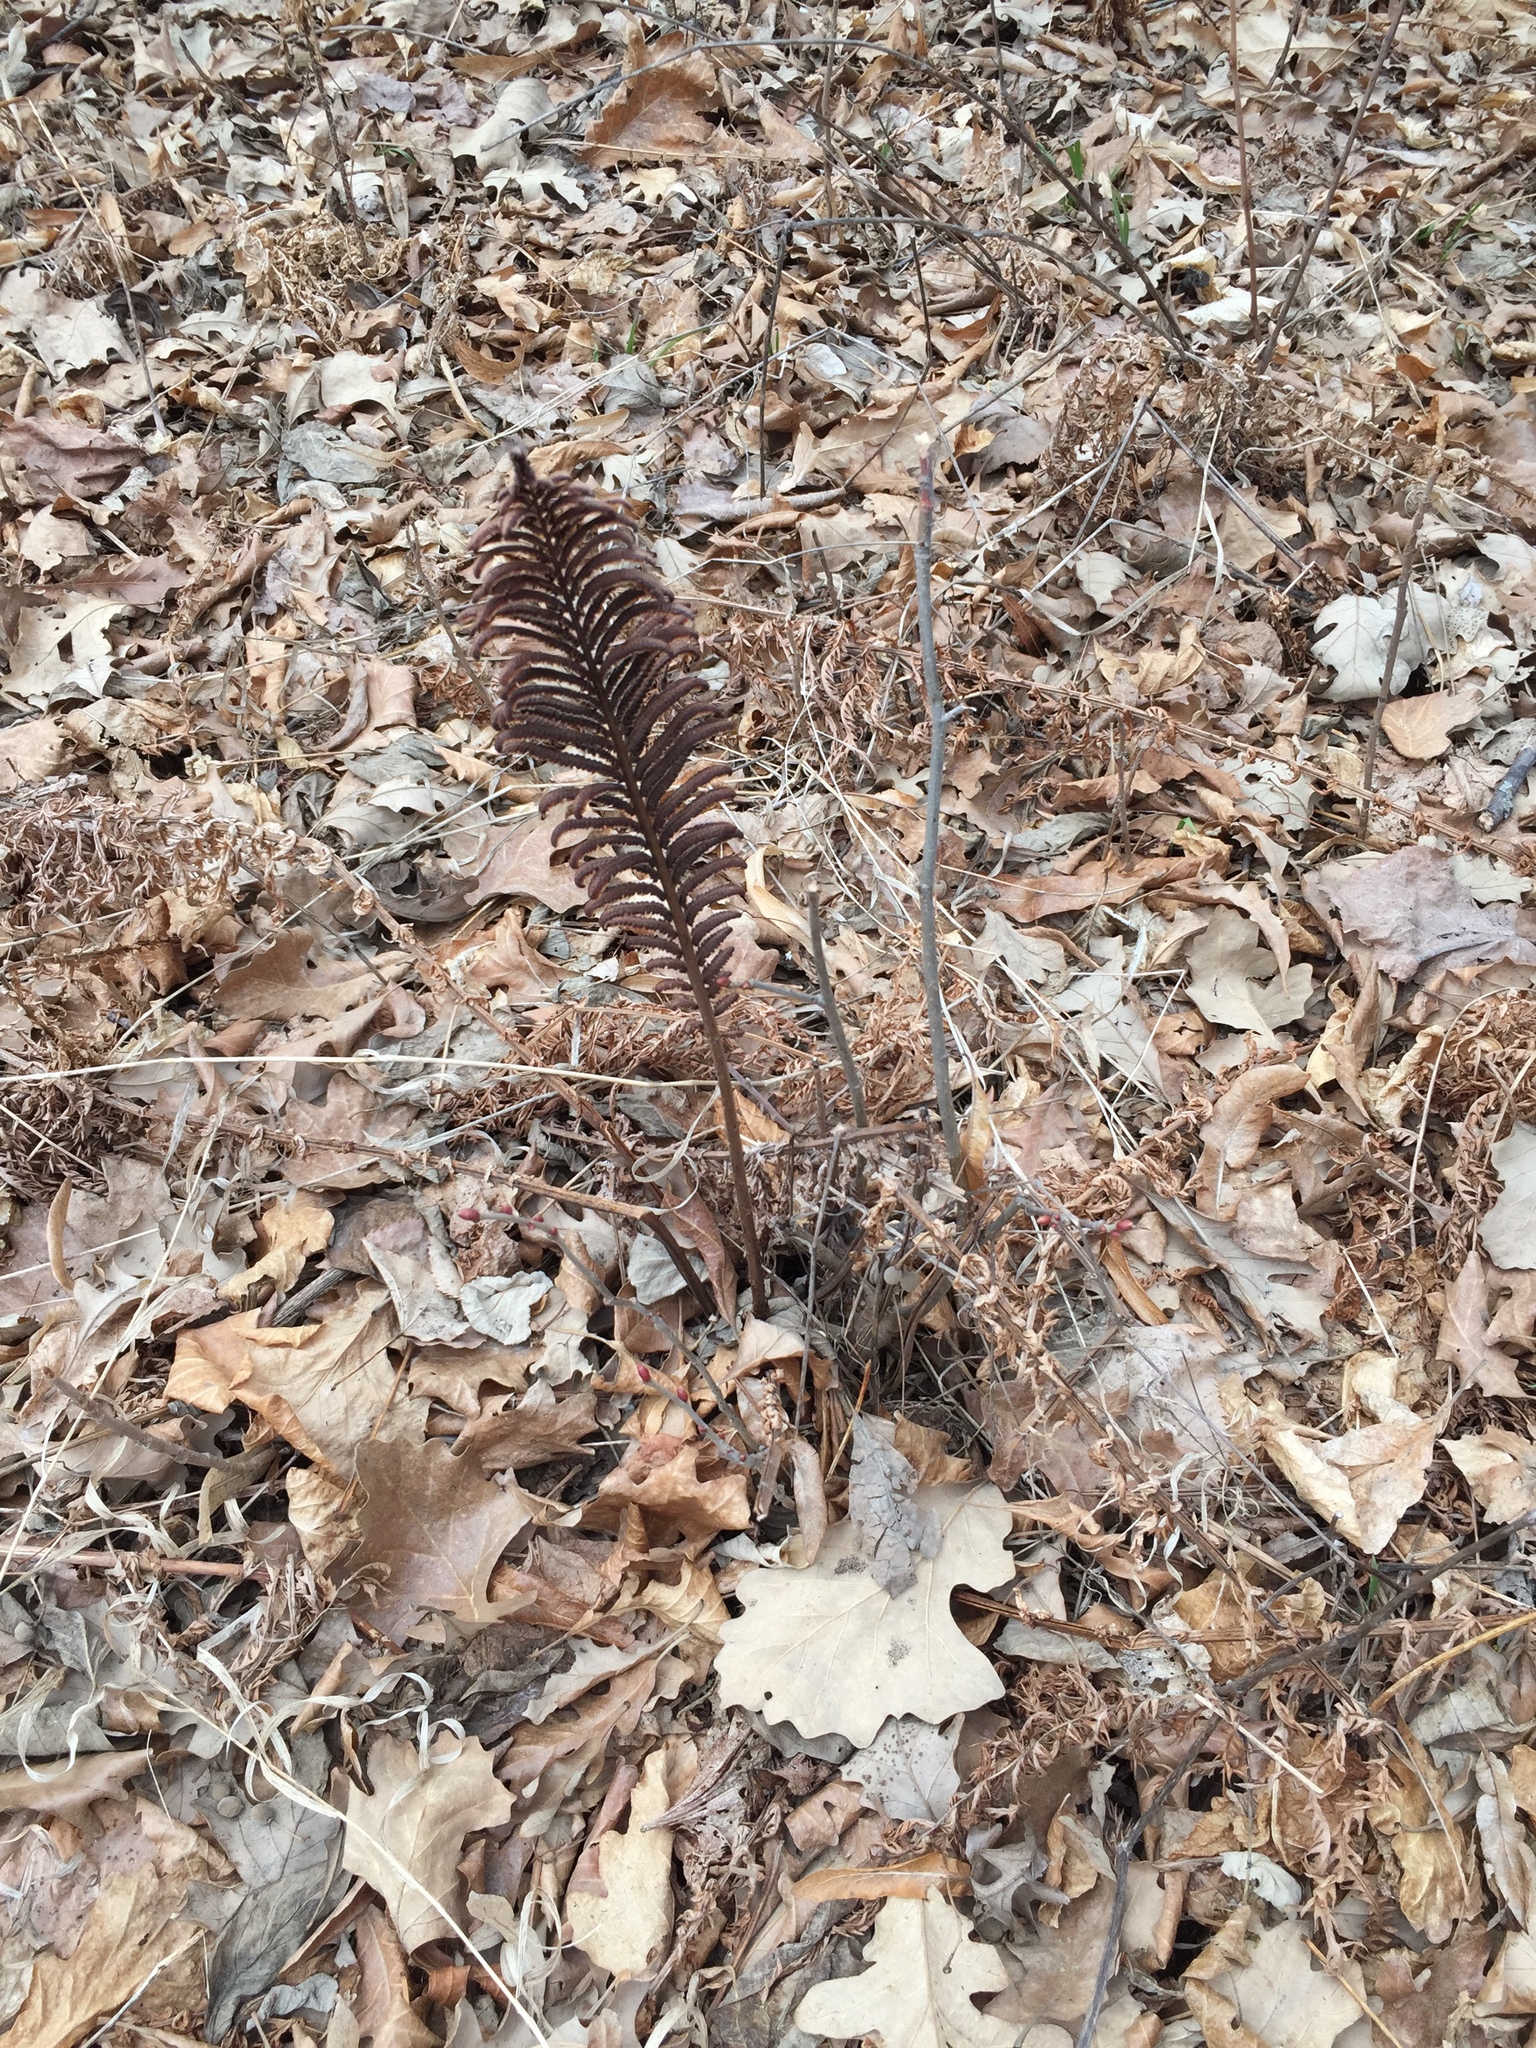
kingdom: Plantae
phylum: Tracheophyta
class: Polypodiopsida
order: Polypodiales
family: Onocleaceae
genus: Matteuccia
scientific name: Matteuccia struthiopteris
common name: Ostrich fern
